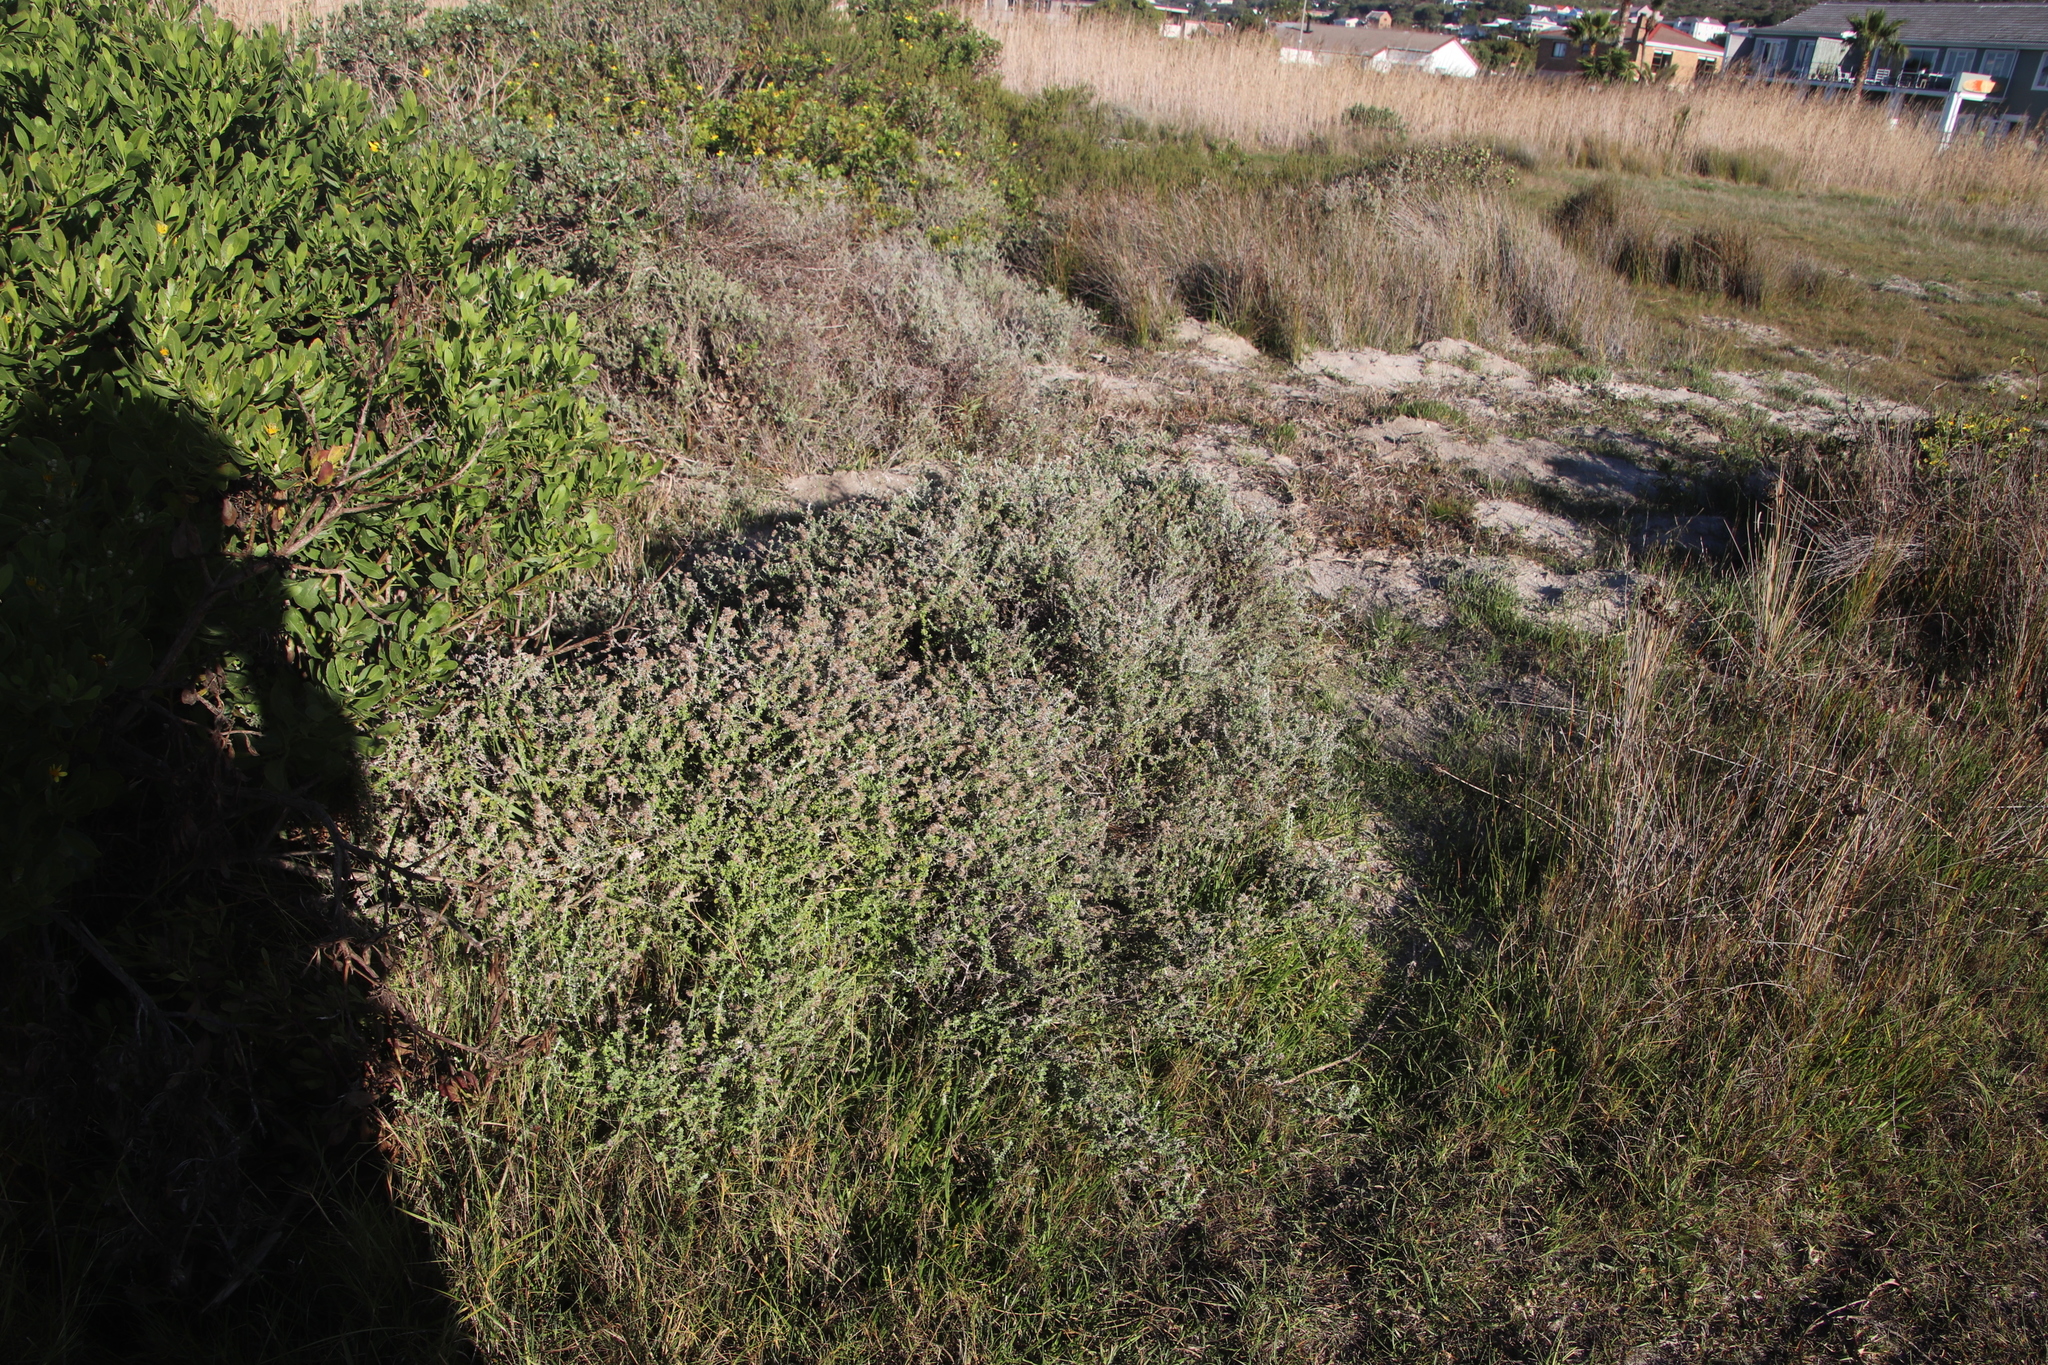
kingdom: Plantae
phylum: Tracheophyta
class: Magnoliopsida
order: Asterales
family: Asteraceae
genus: Plecostachys
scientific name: Plecostachys serpyllifolia
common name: Petite licorice
